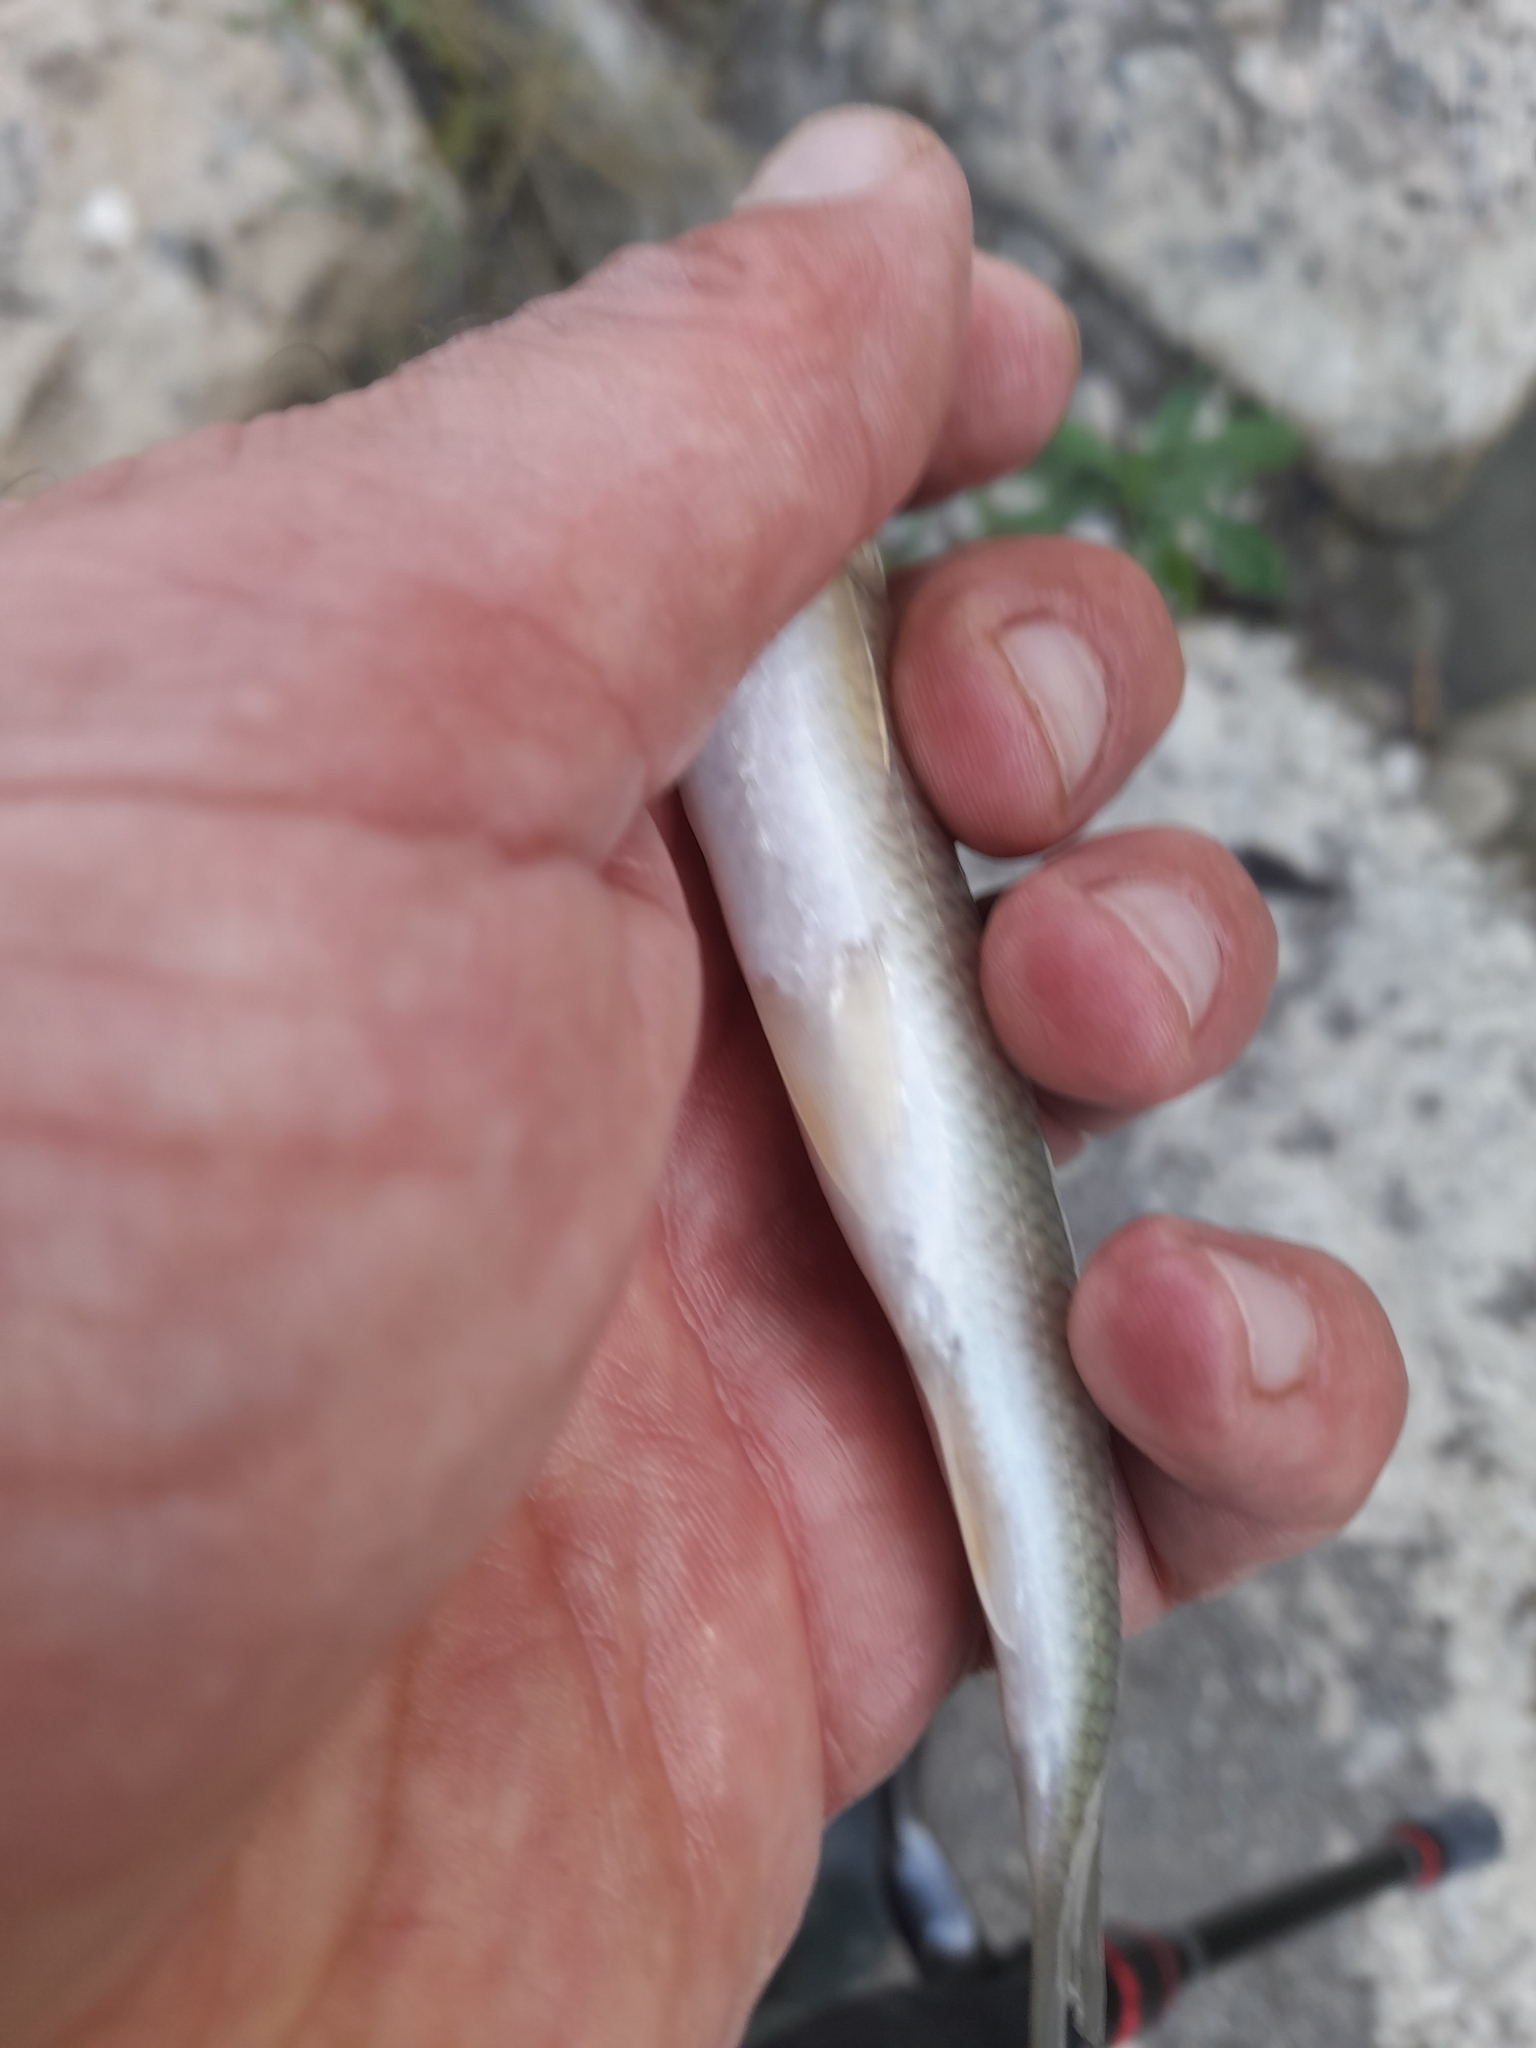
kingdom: Animalia
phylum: Chordata
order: Cypriniformes
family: Cyprinidae
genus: Squalius
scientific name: Squalius squalus
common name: Italian chub
